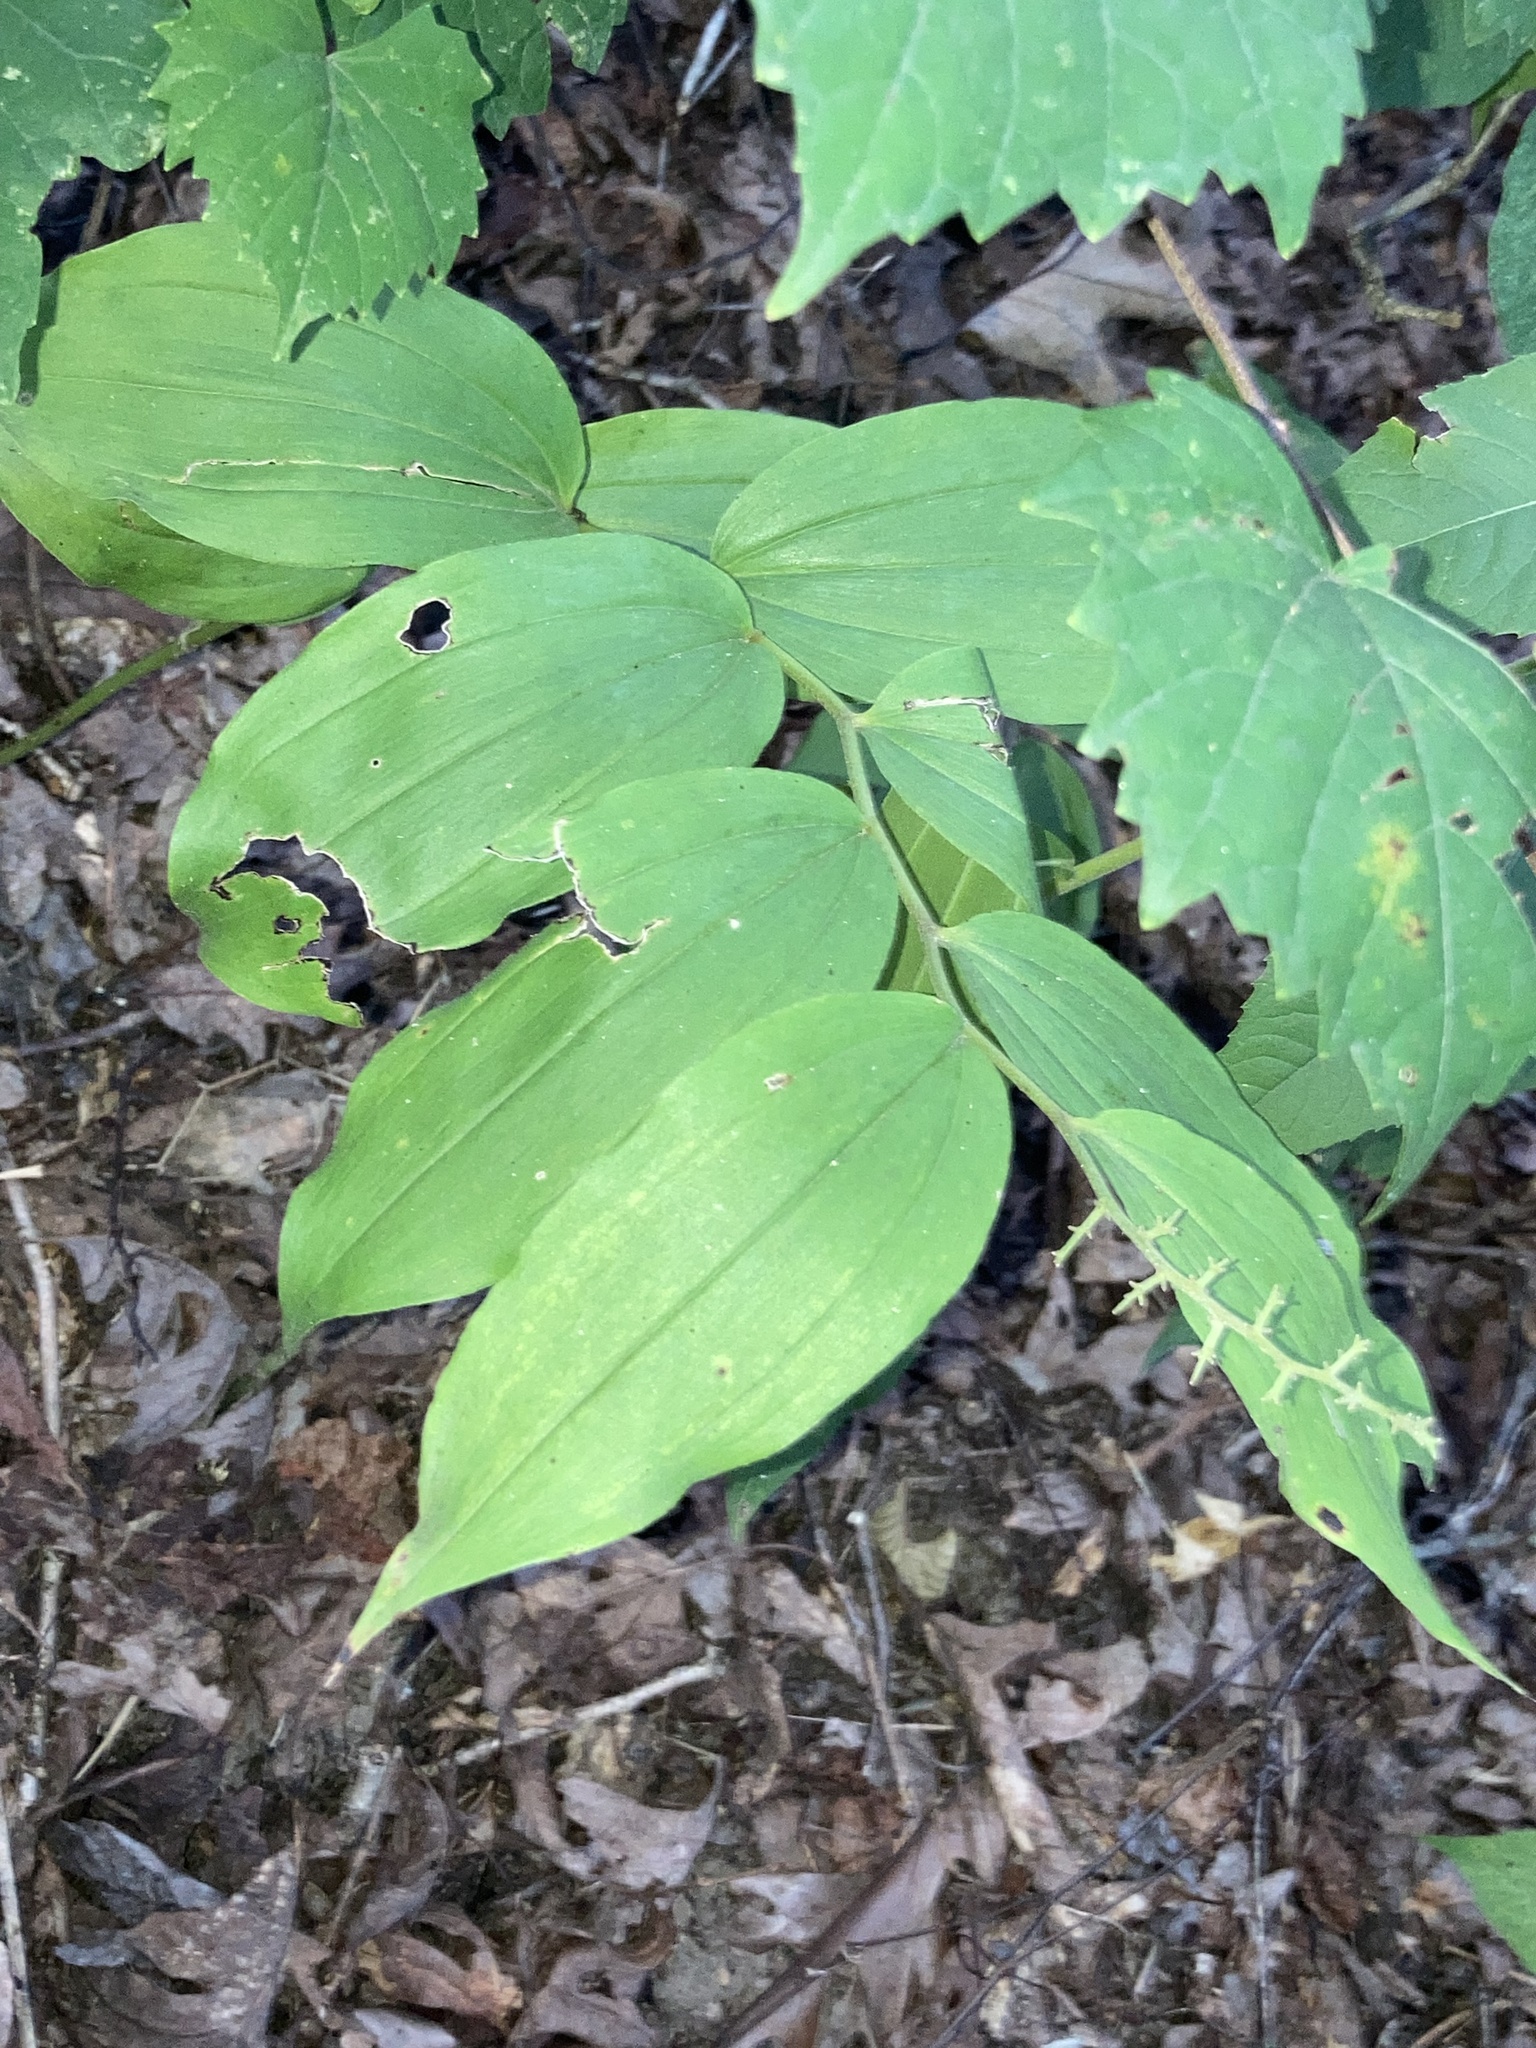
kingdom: Plantae
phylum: Tracheophyta
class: Liliopsida
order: Asparagales
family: Asparagaceae
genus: Maianthemum
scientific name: Maianthemum racemosum
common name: False spikenard
